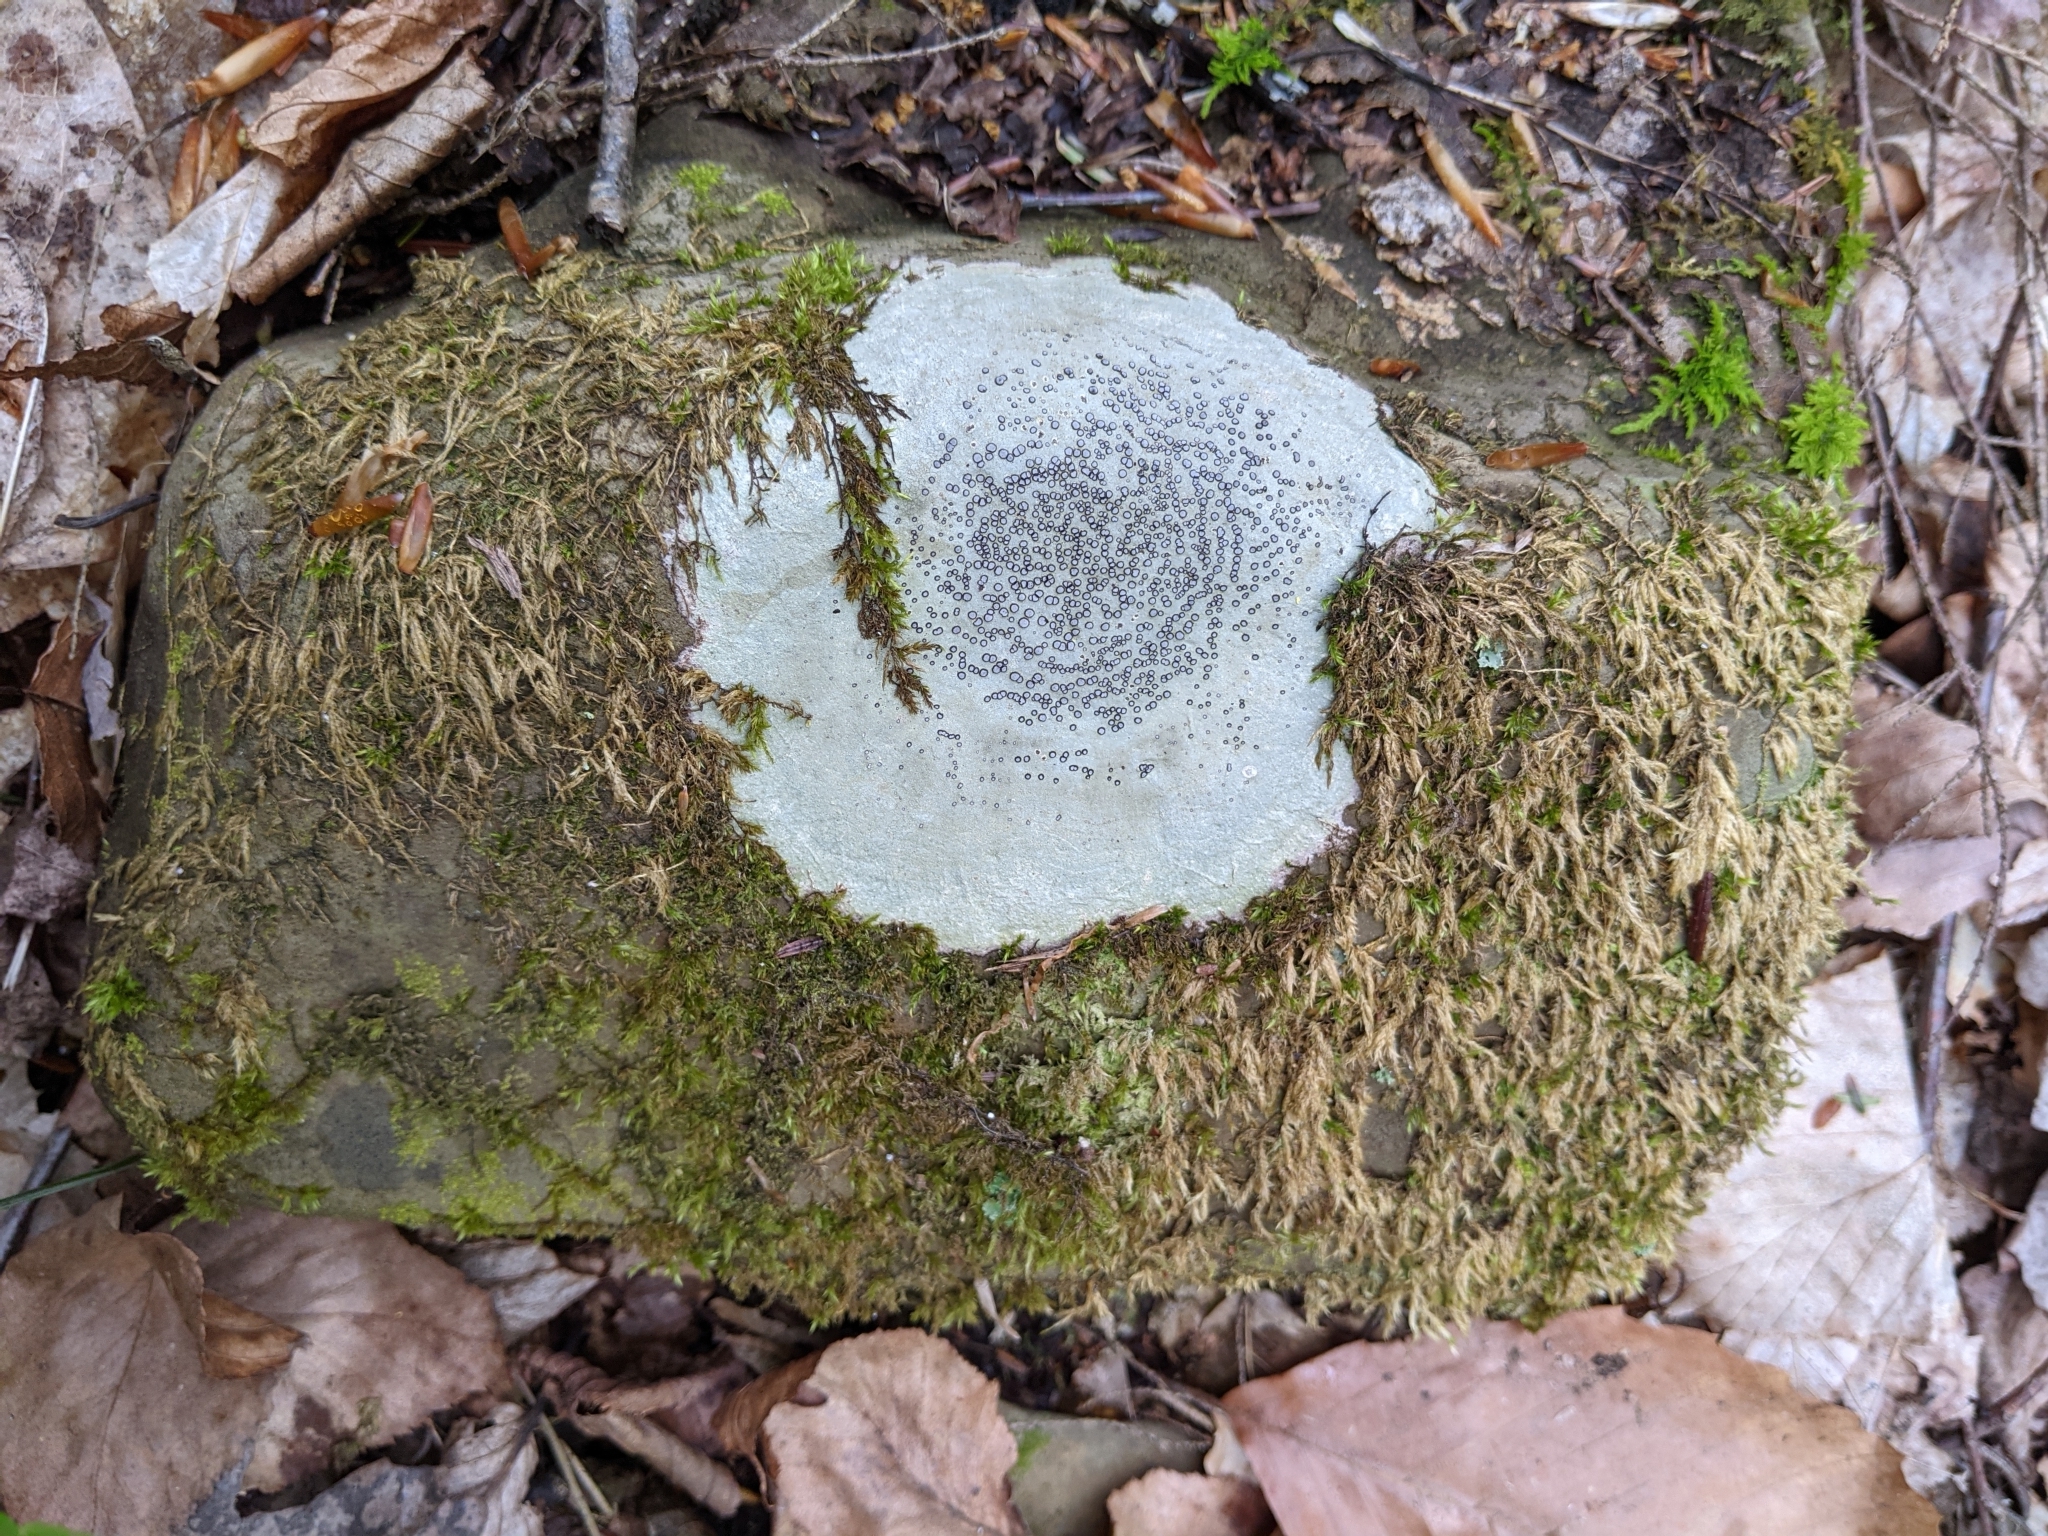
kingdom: Fungi
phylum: Ascomycota
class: Lecanoromycetes
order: Lecideales
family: Lecideaceae
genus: Porpidia
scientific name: Porpidia albocaerulescens
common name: Smokey-eyed boulder lichen
